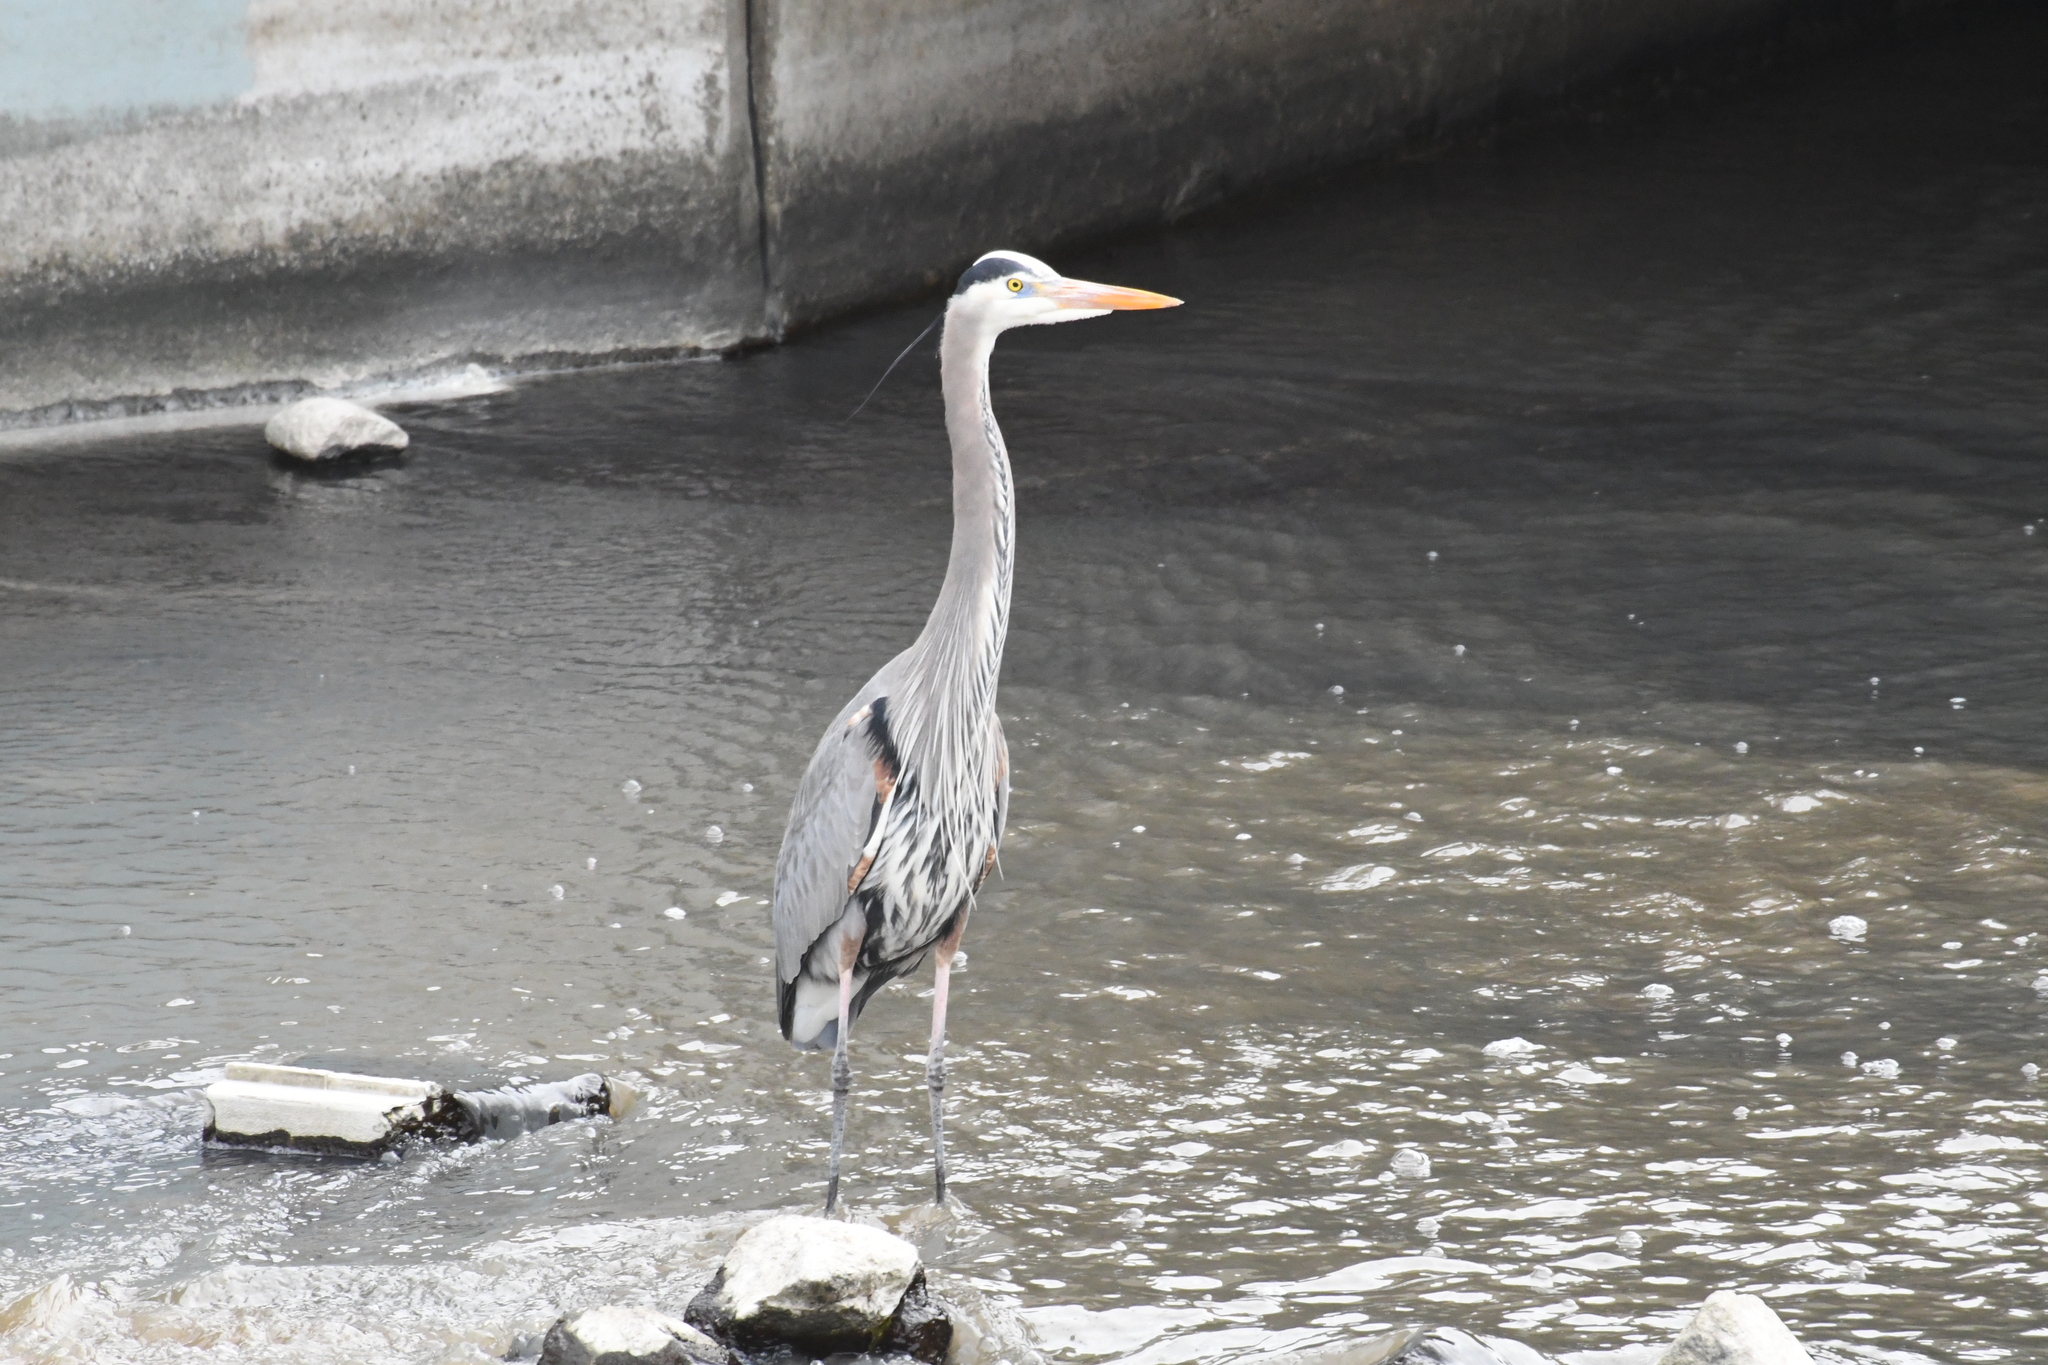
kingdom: Animalia
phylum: Chordata
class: Aves
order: Pelecaniformes
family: Ardeidae
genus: Ardea
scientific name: Ardea herodias
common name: Great blue heron
